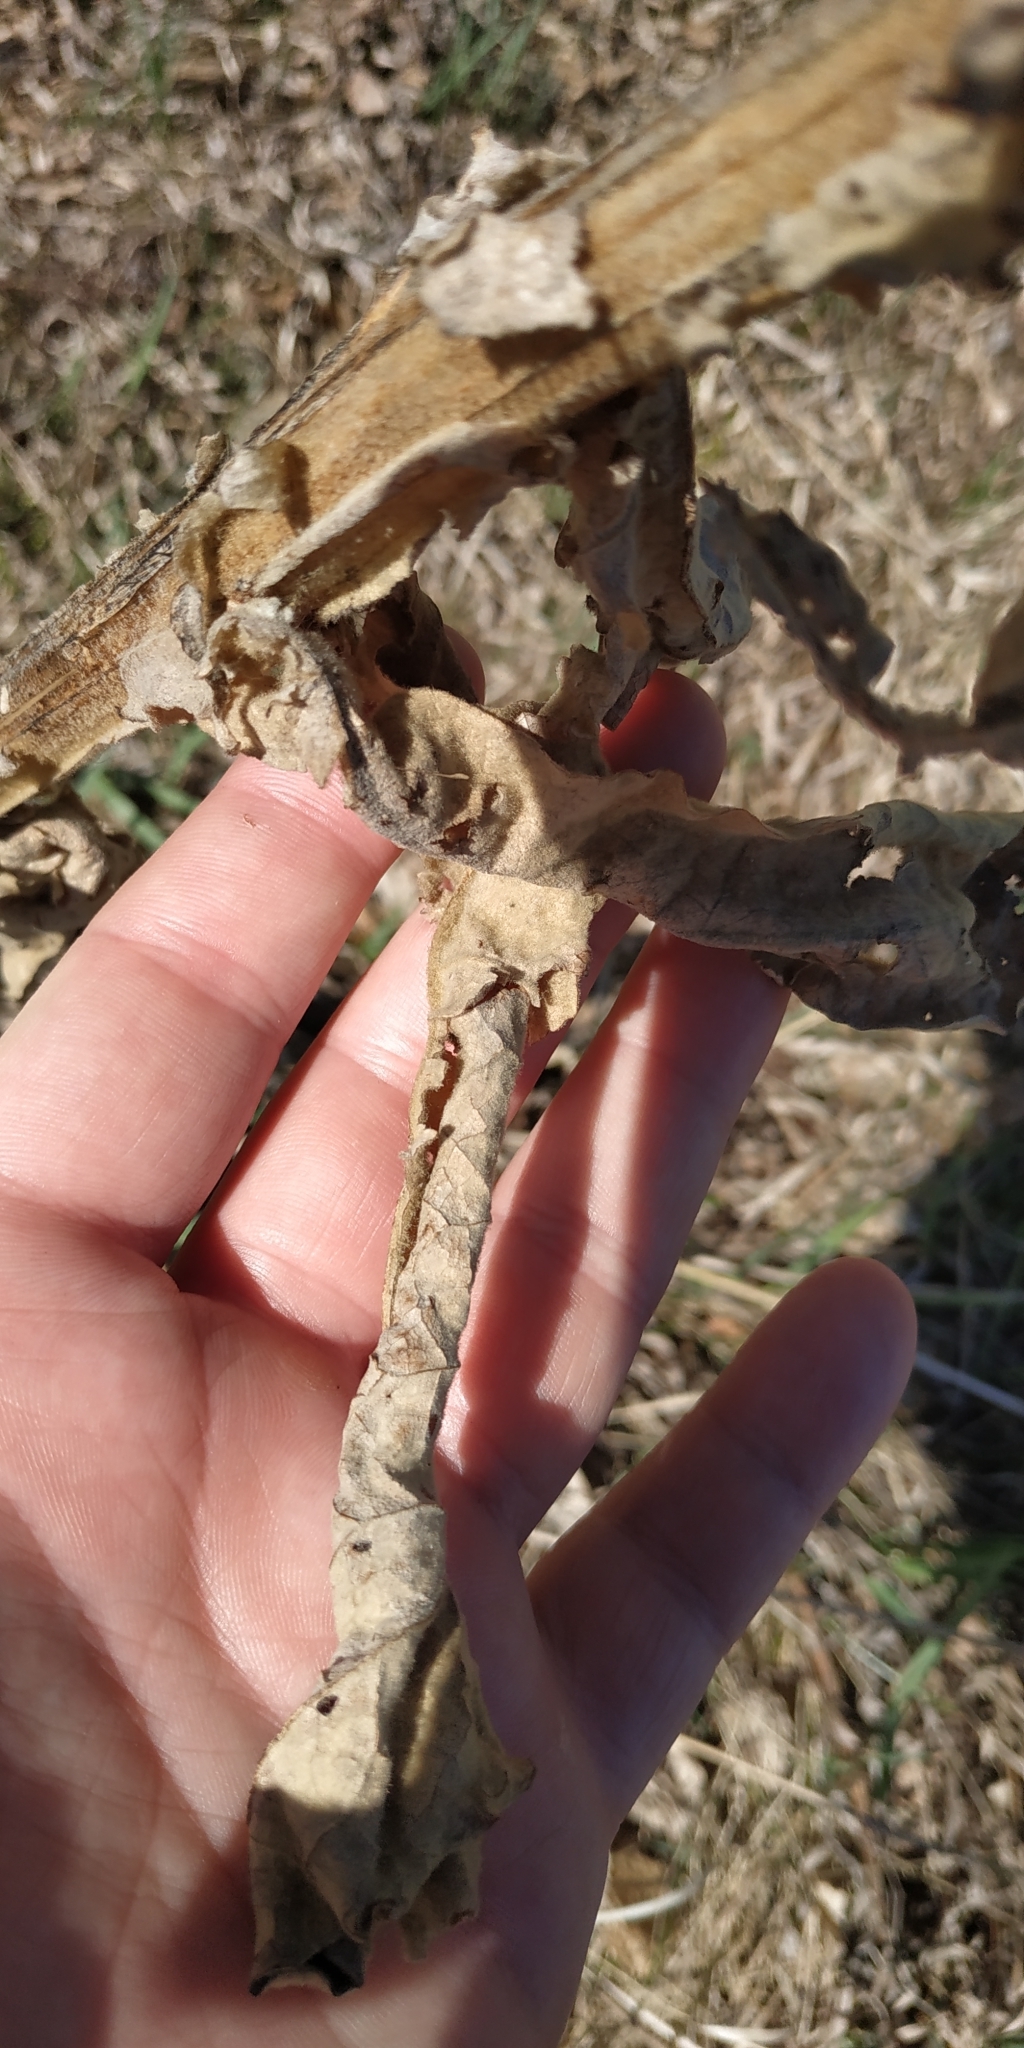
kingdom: Plantae
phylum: Tracheophyta
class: Magnoliopsida
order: Lamiales
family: Scrophulariaceae
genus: Verbascum
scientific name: Verbascum thapsus
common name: Common mullein
